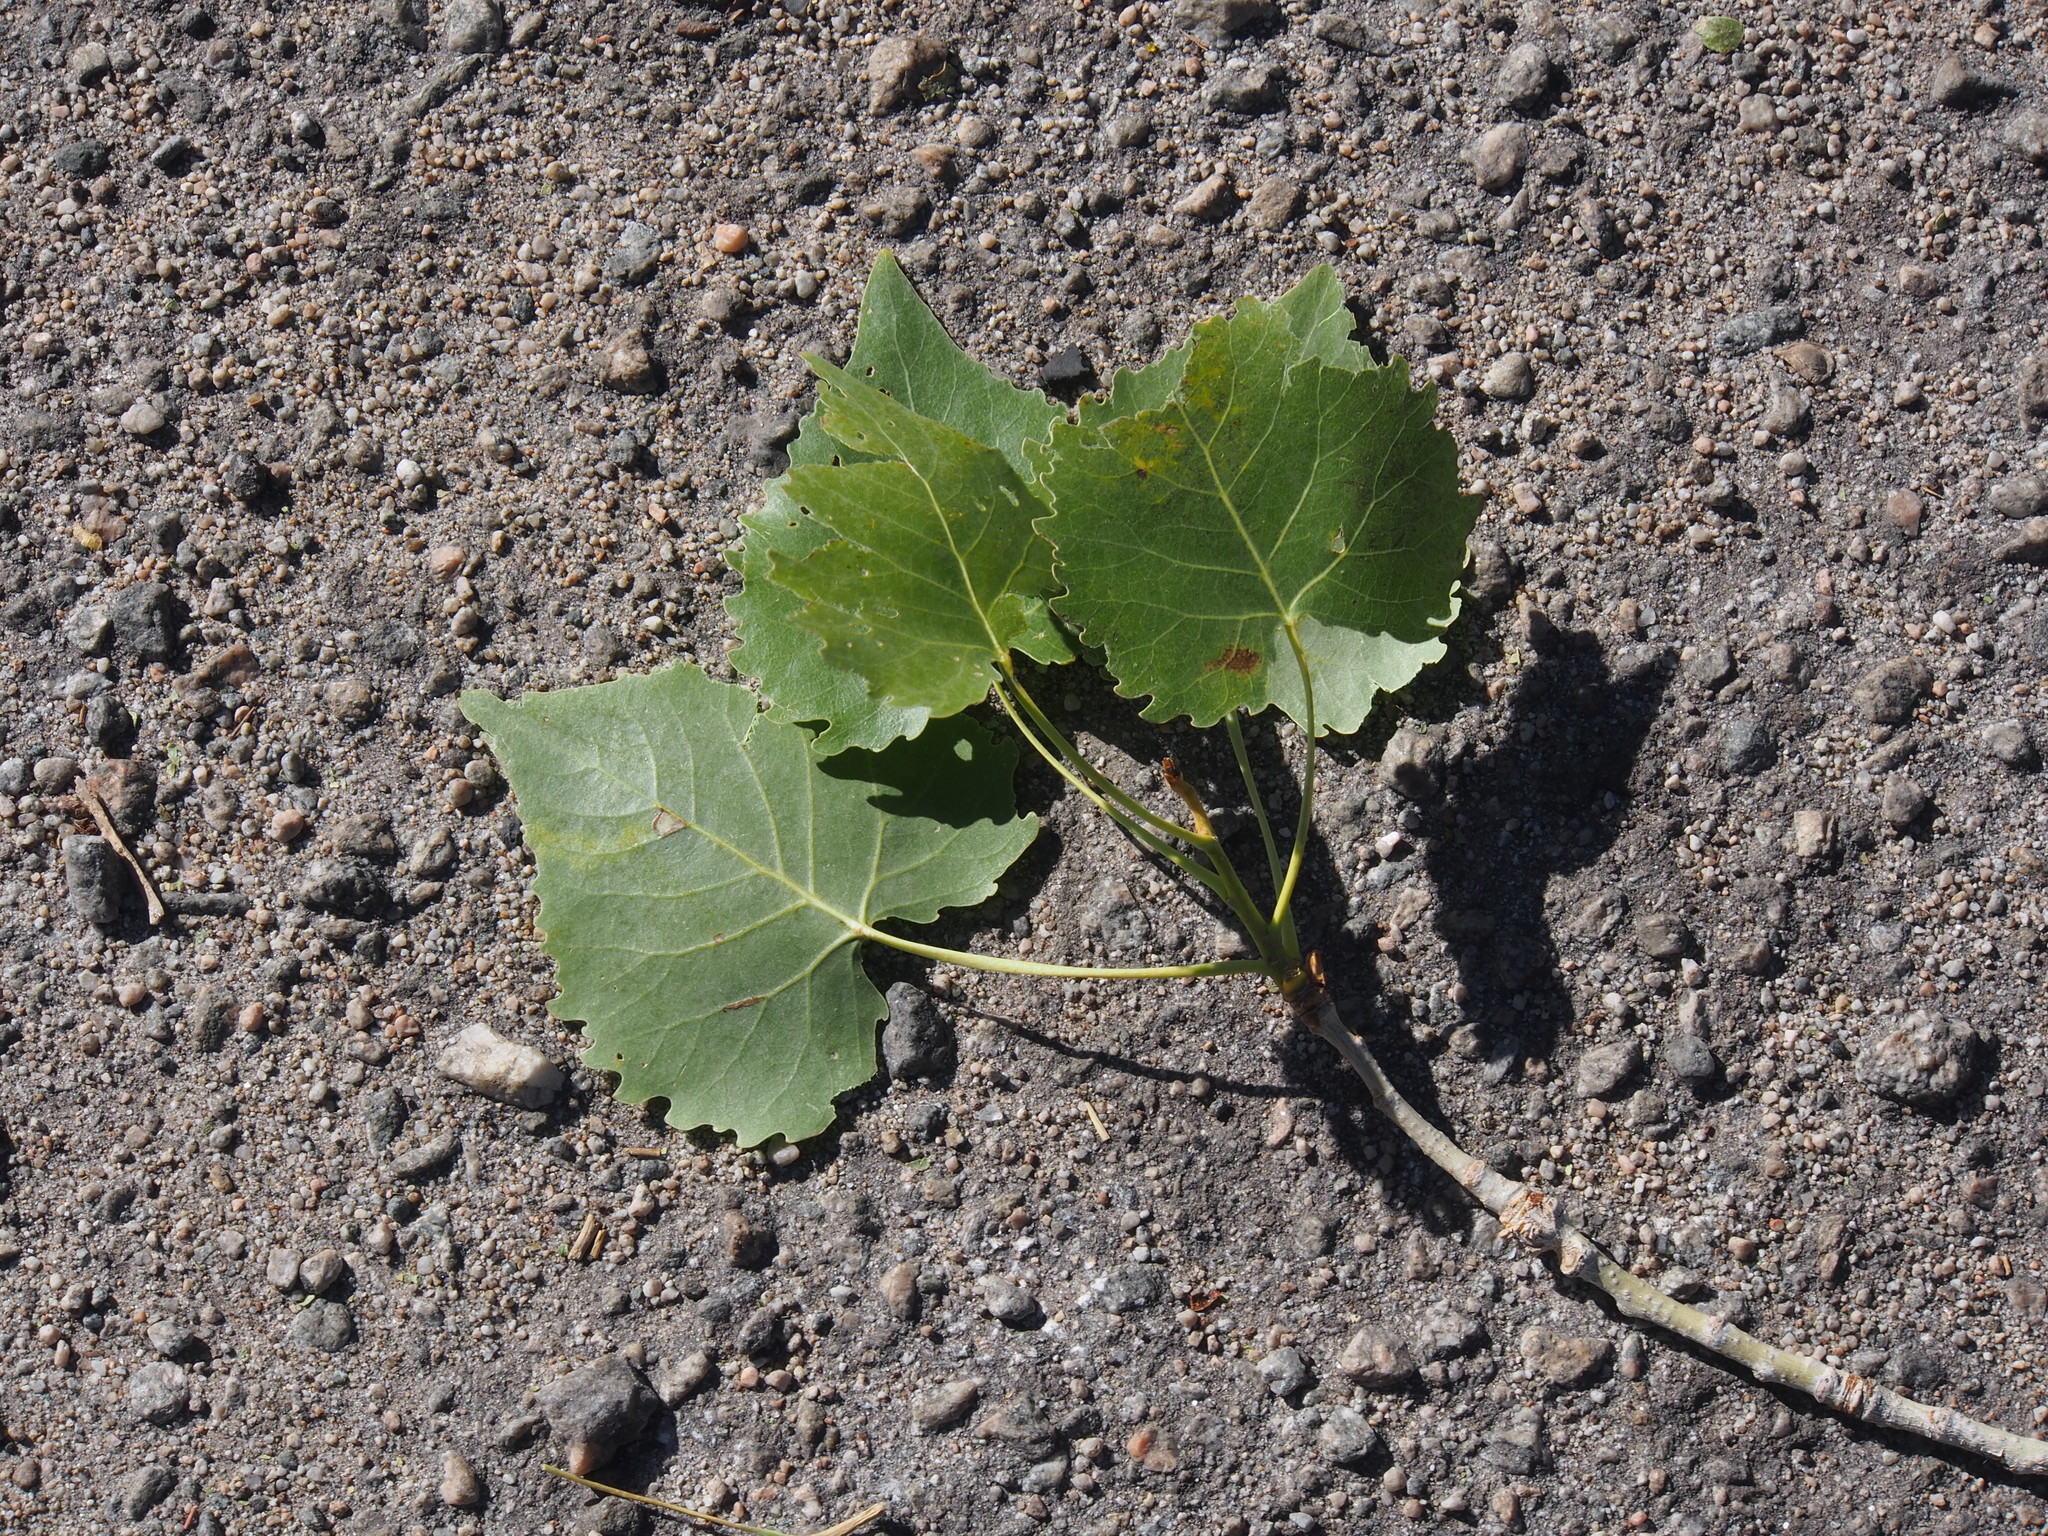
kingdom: Plantae
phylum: Tracheophyta
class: Magnoliopsida
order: Malpighiales
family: Salicaceae
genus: Populus
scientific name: Populus fremontii
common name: Fremont's cottonwood
